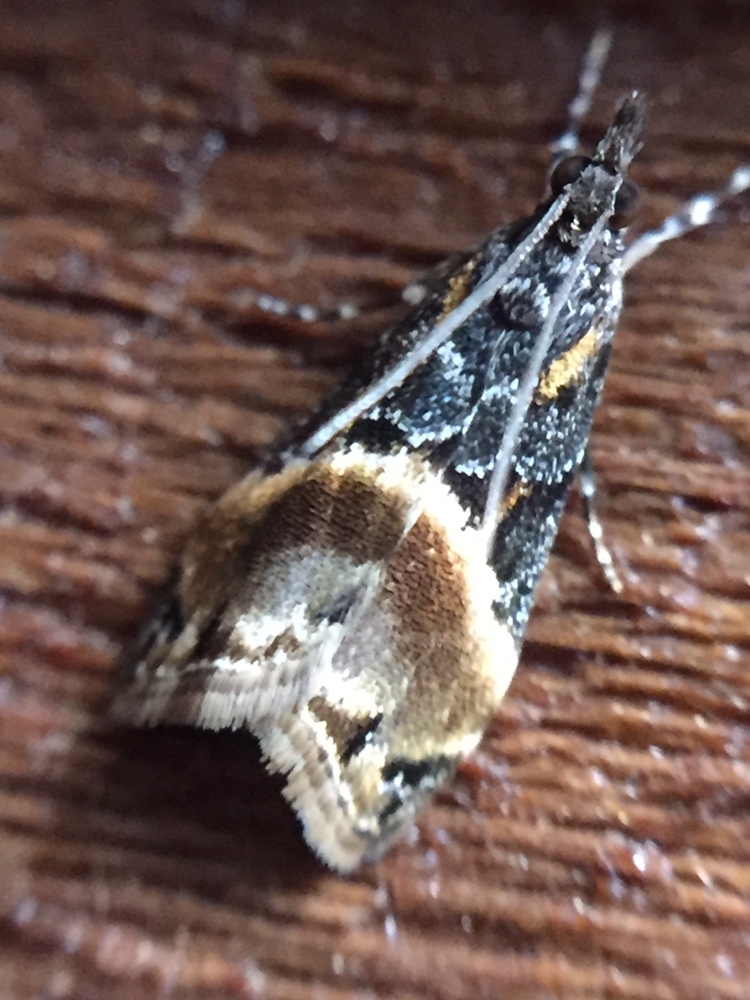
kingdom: Animalia
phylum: Arthropoda
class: Insecta
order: Lepidoptera
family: Crambidae
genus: Eudonia
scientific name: Eudonia chlamydota
